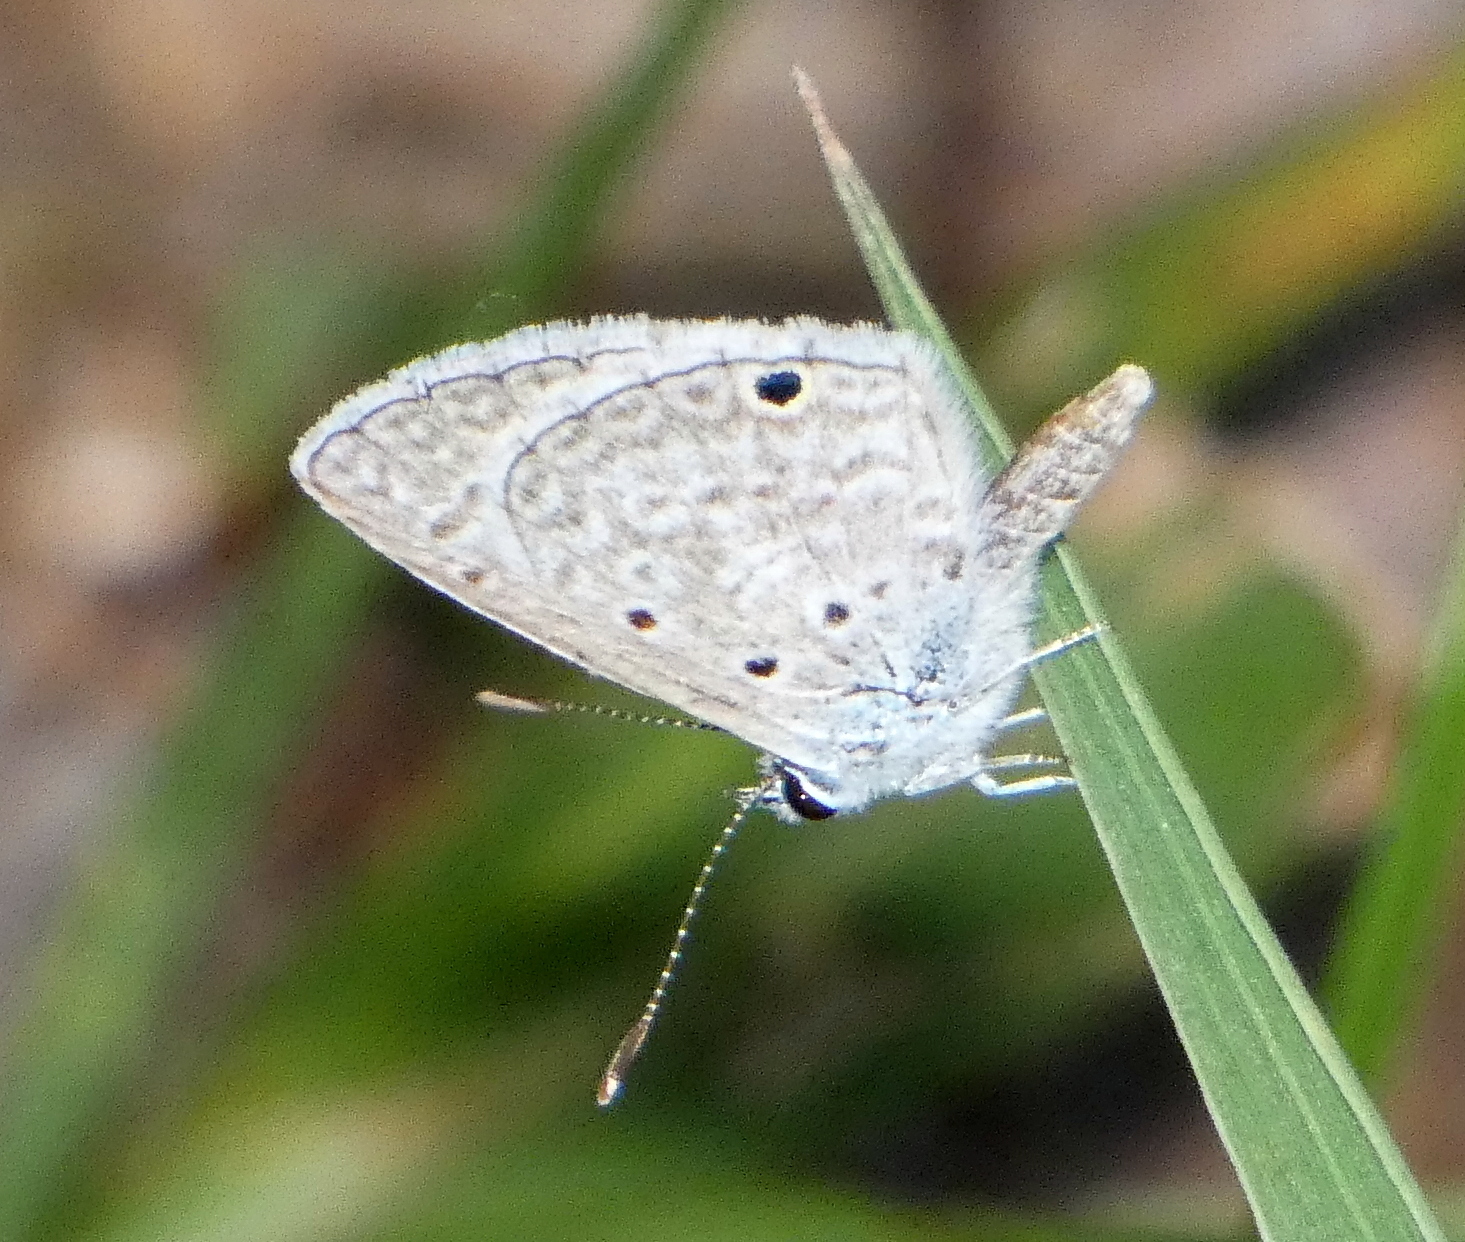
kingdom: Animalia
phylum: Arthropoda
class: Insecta
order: Lepidoptera
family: Lycaenidae
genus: Hemiargus
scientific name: Hemiargus hanno
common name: Common blue
